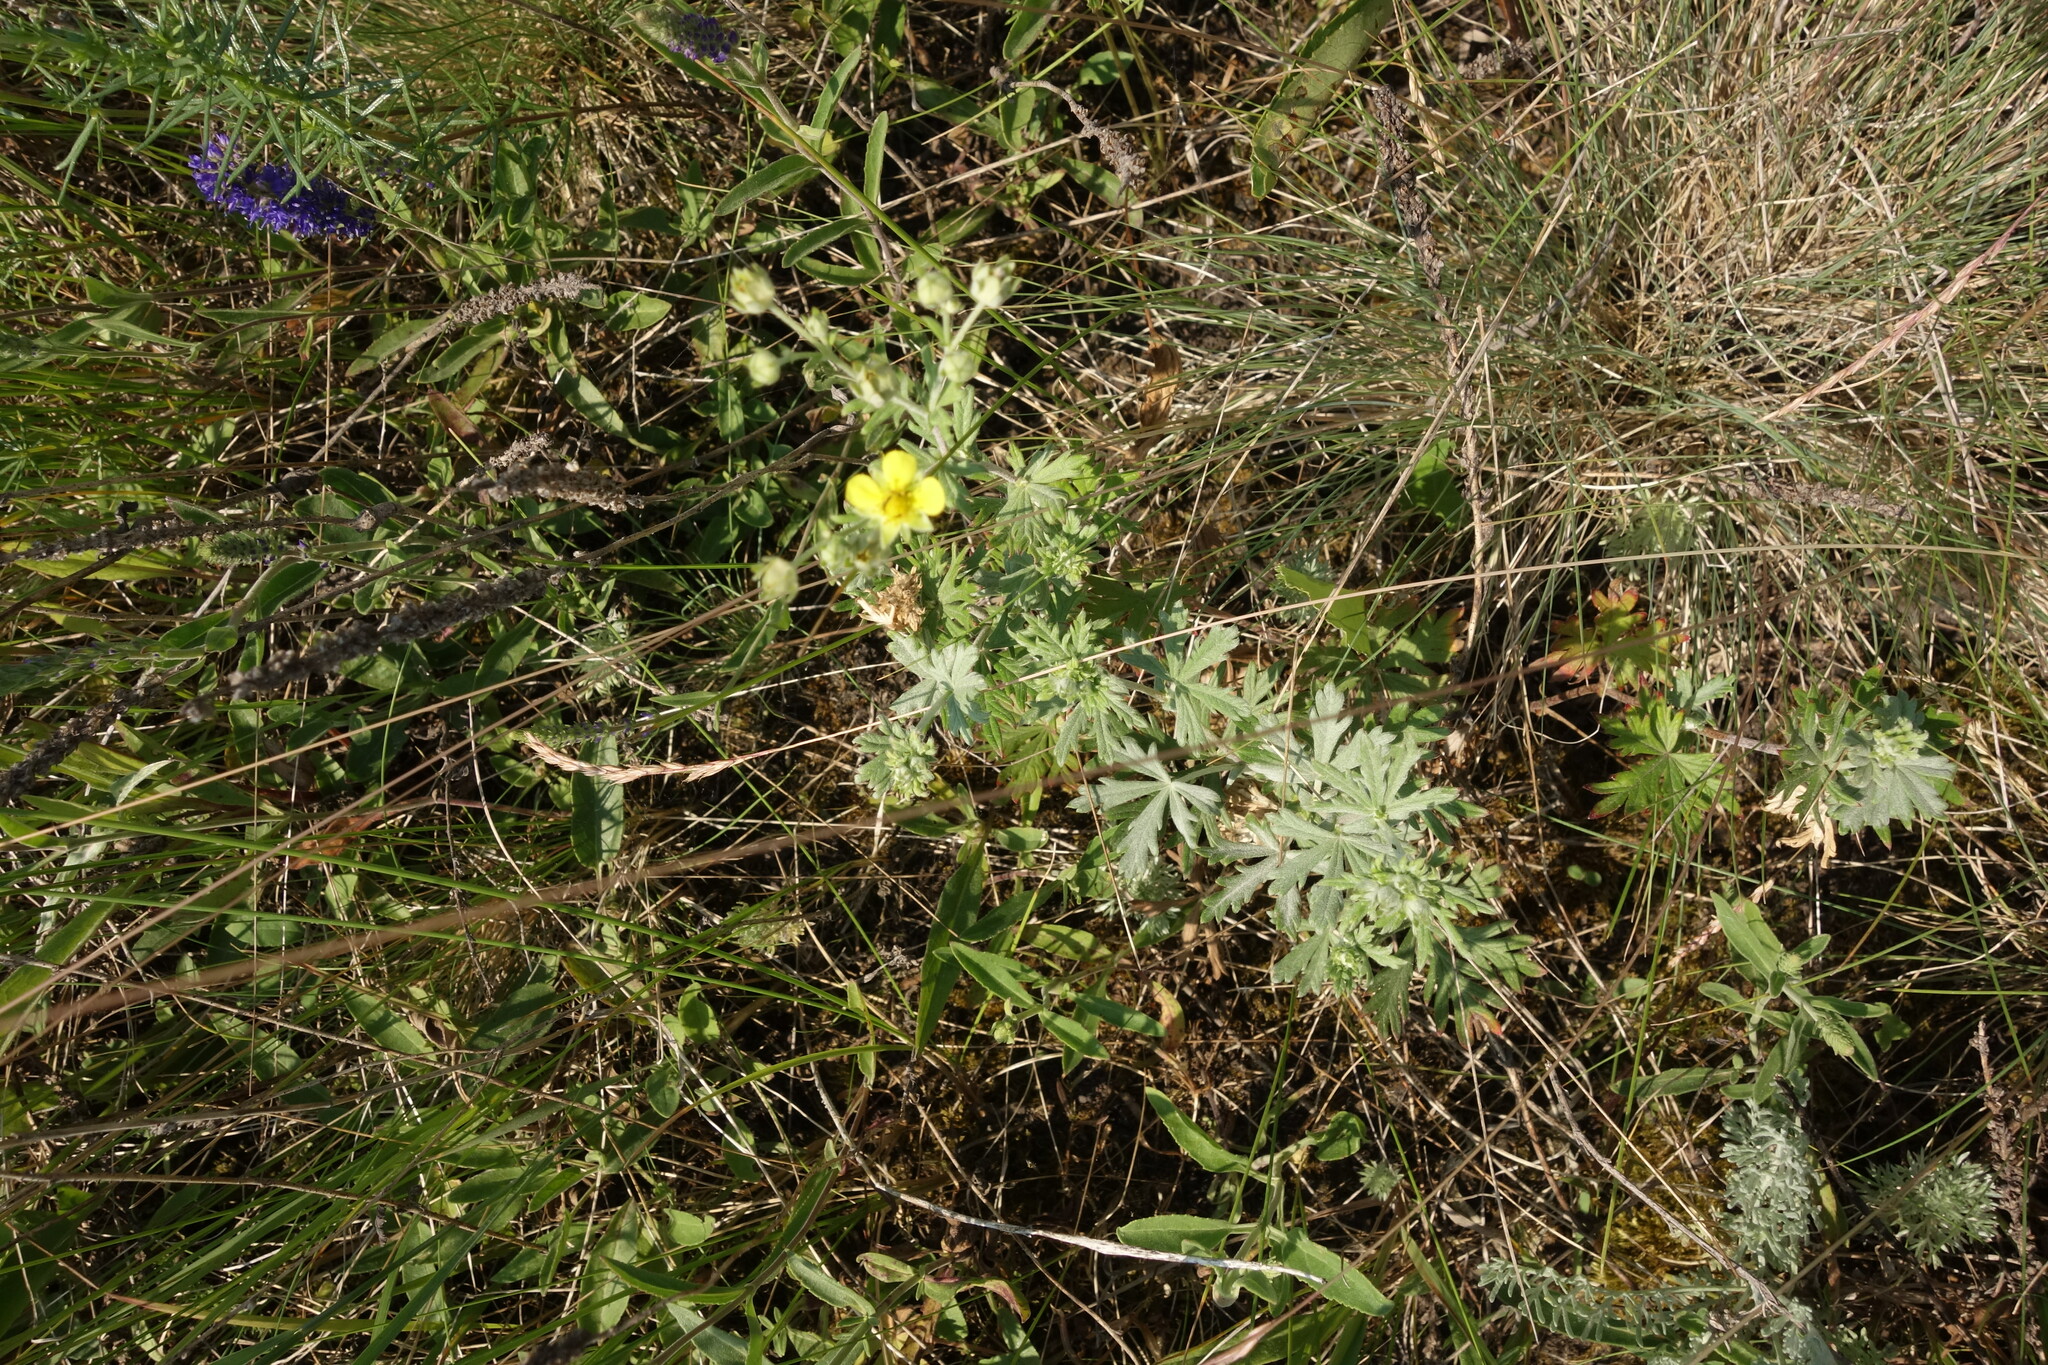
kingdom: Plantae
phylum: Tracheophyta
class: Magnoliopsida
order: Rosales
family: Rosaceae
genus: Potentilla
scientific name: Potentilla argentea
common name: Hoary cinquefoil
